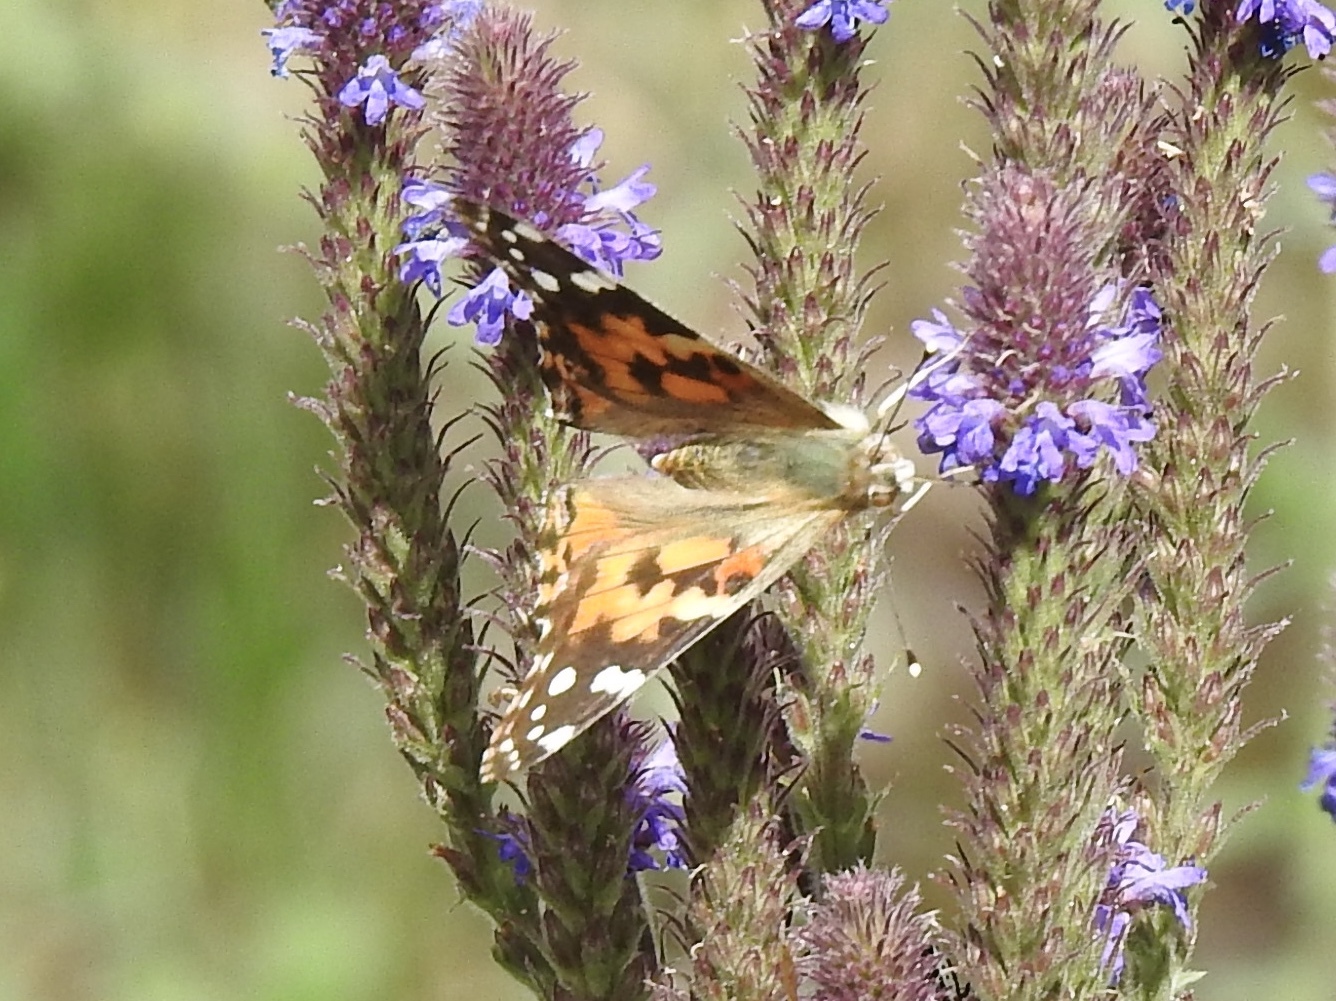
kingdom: Animalia
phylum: Arthropoda
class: Insecta
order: Lepidoptera
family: Nymphalidae
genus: Vanessa
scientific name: Vanessa cardui
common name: Painted lady
